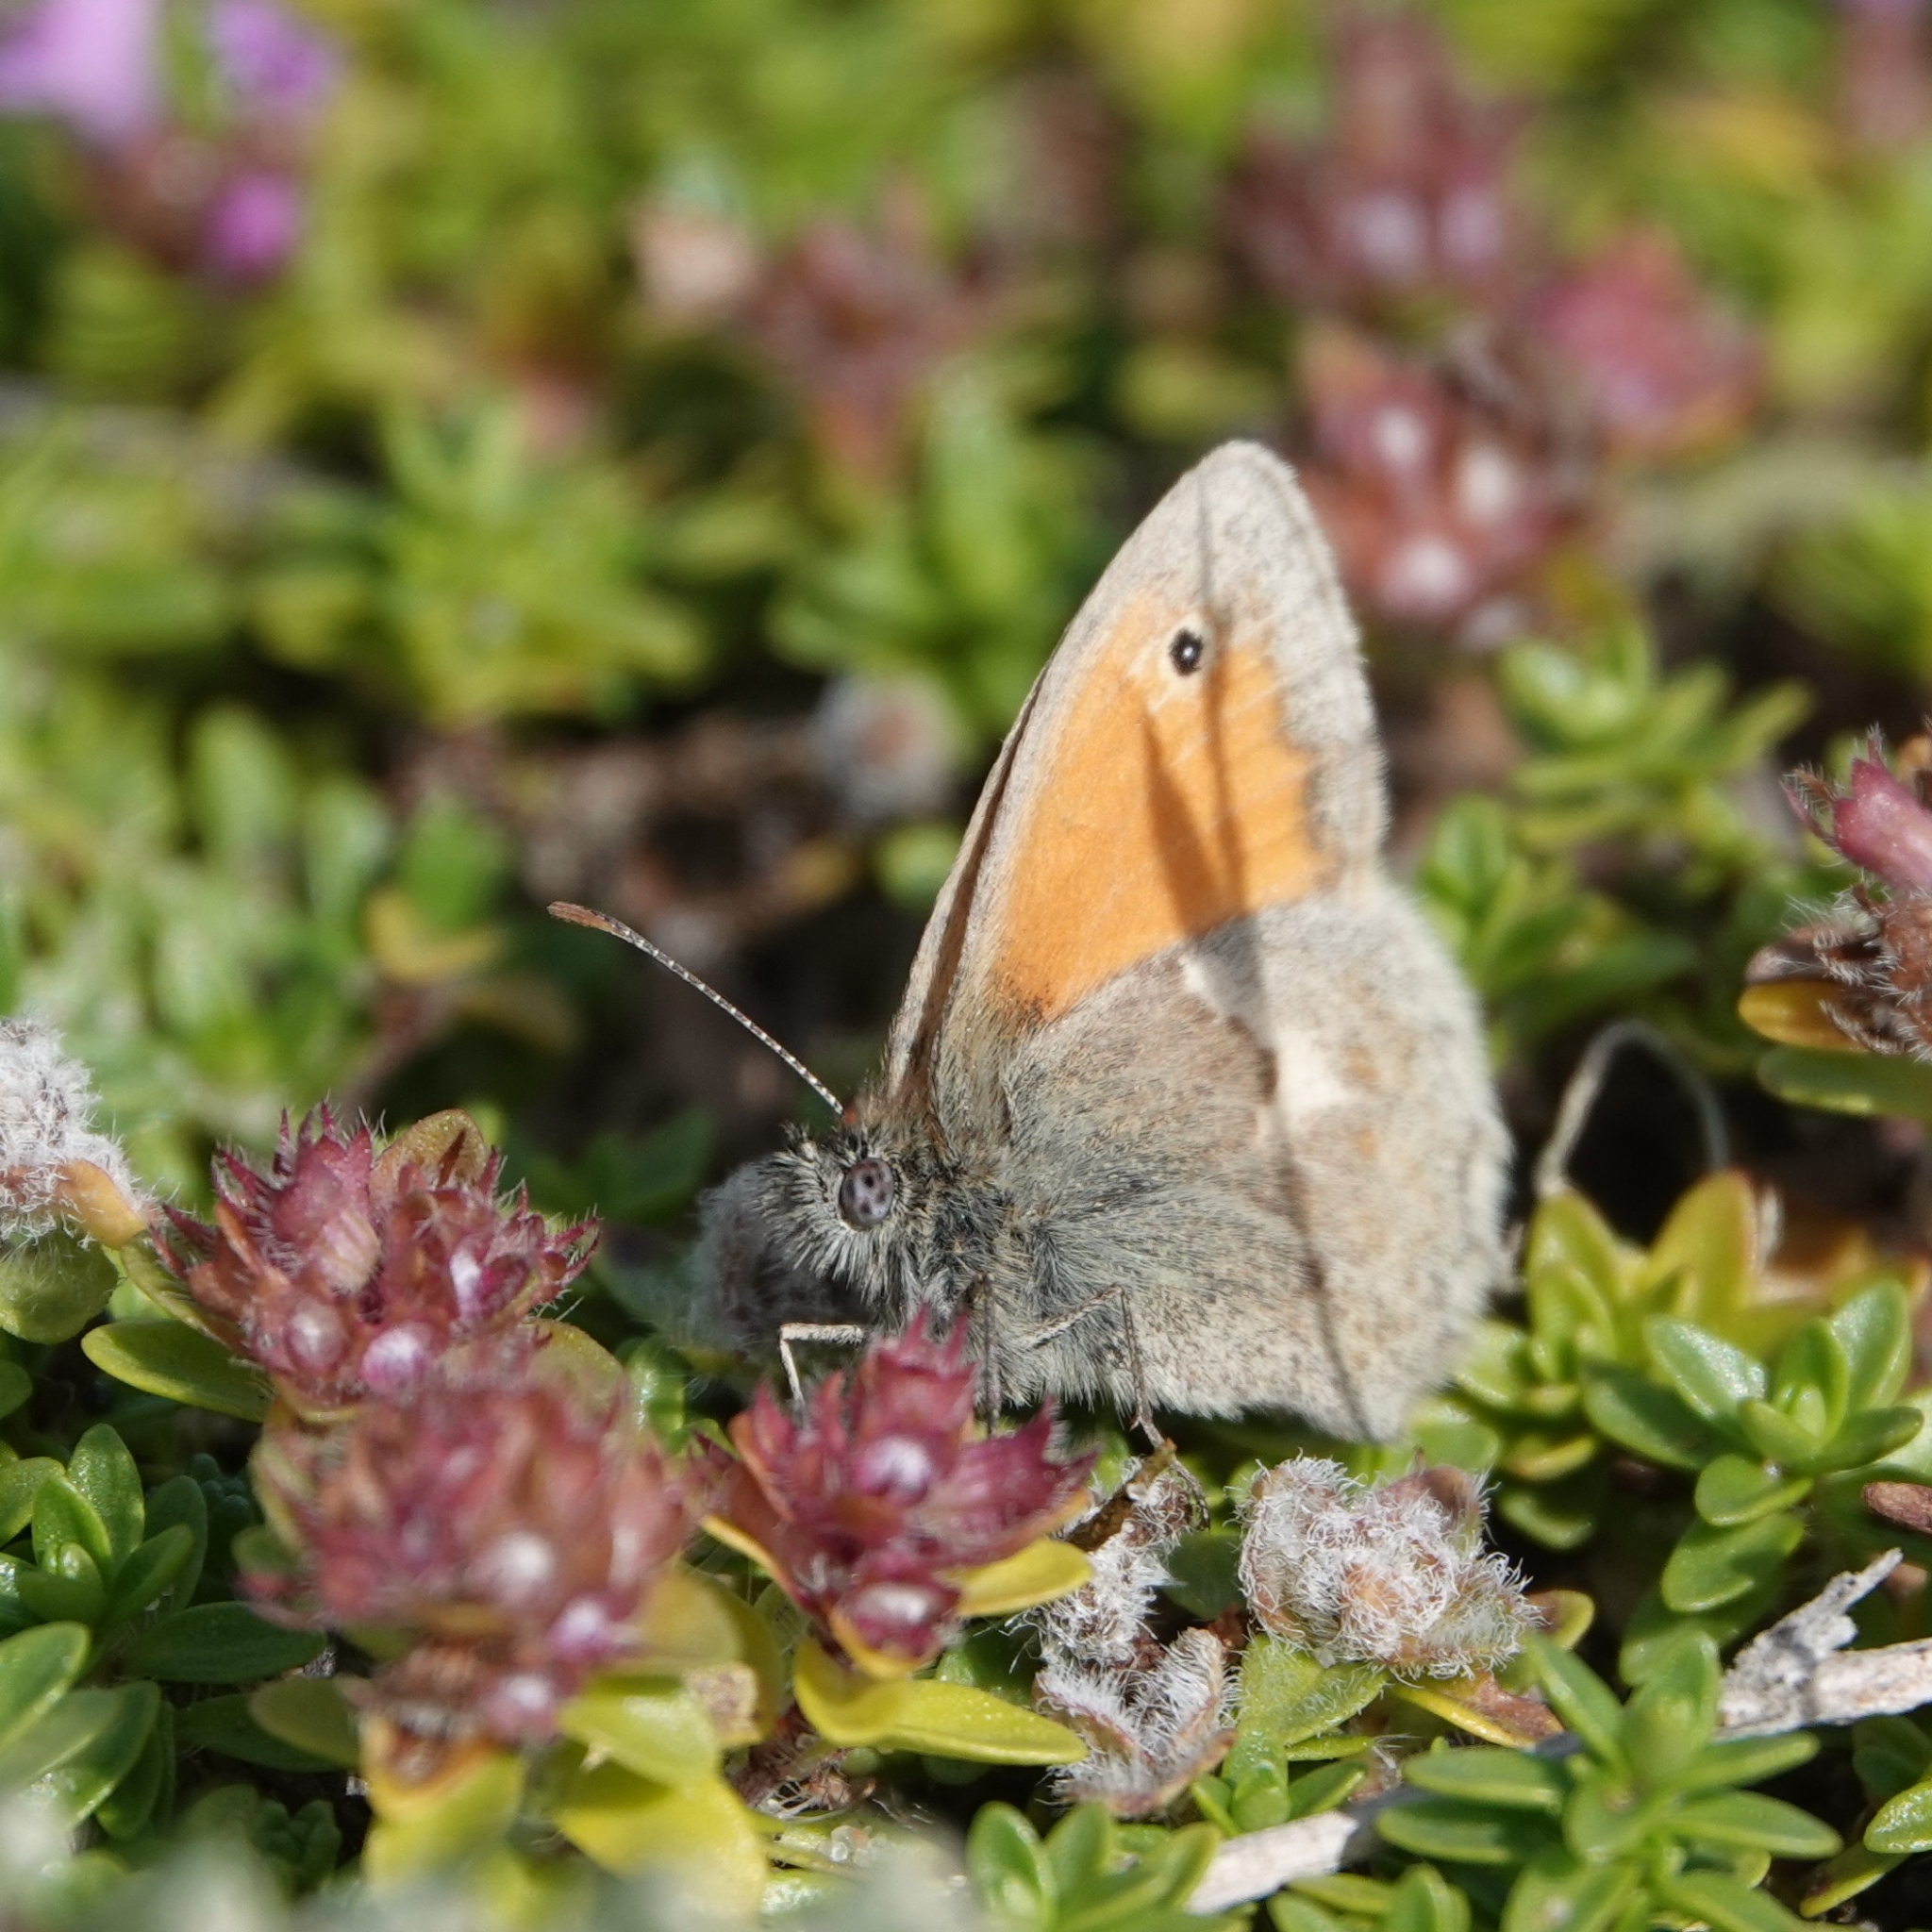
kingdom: Animalia
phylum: Arthropoda
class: Insecta
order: Lepidoptera
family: Nymphalidae
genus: Coenonympha
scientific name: Coenonympha pamphilus
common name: Small heath
